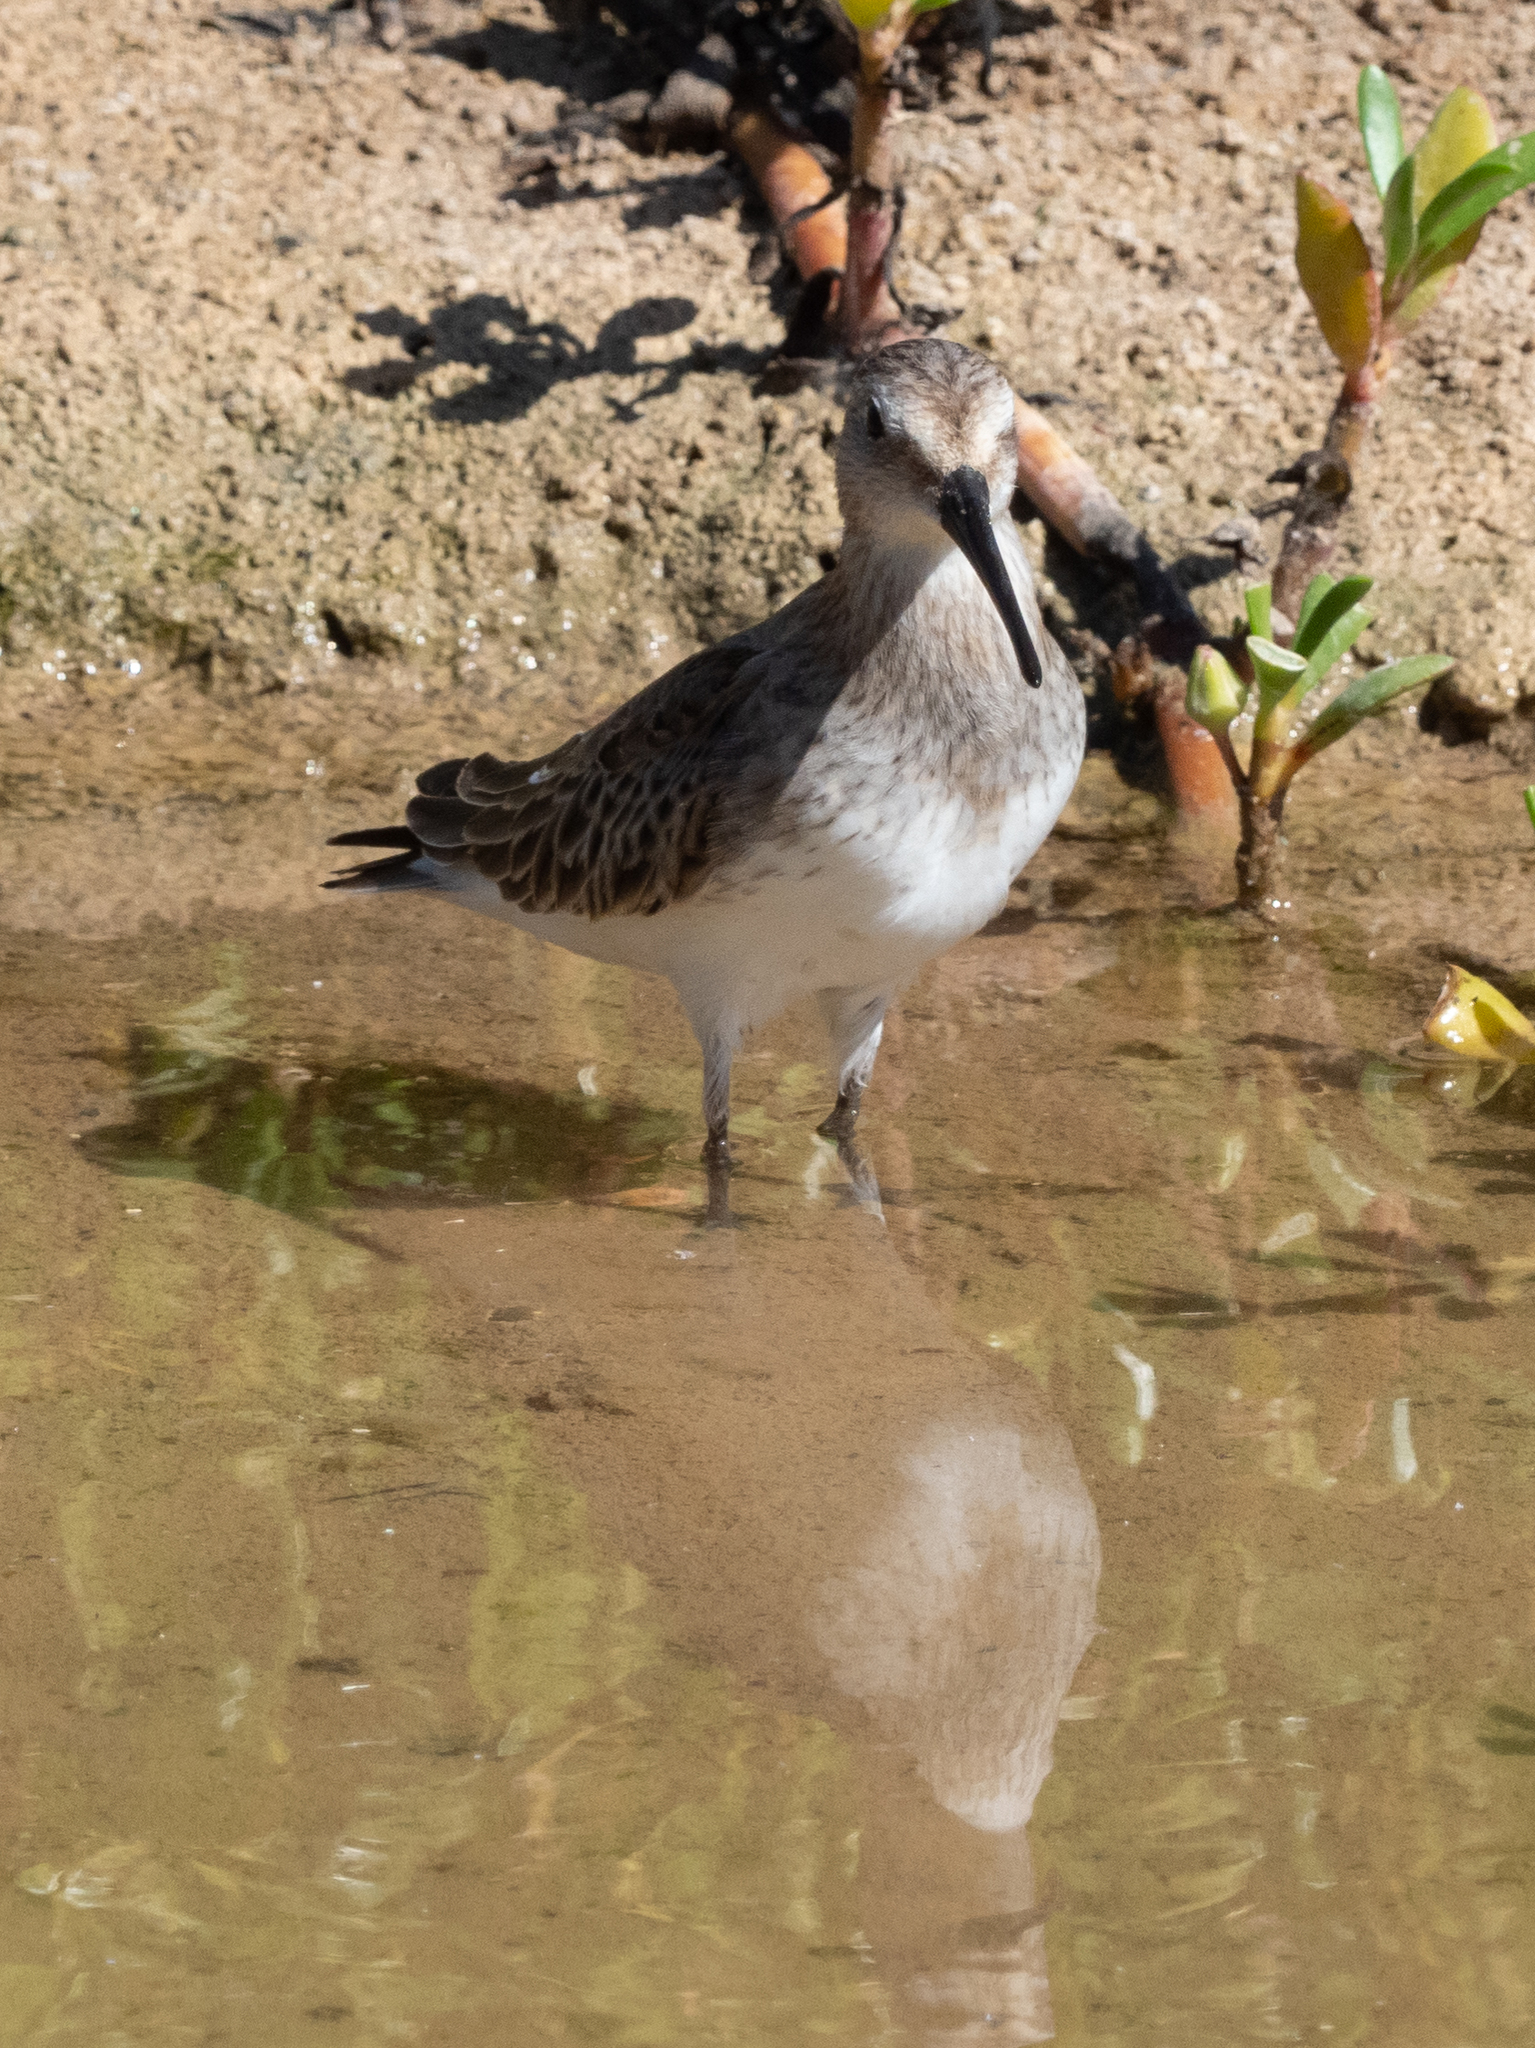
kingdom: Animalia
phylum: Chordata
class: Aves
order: Charadriiformes
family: Scolopacidae
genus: Calidris
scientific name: Calidris alpina
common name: Dunlin
